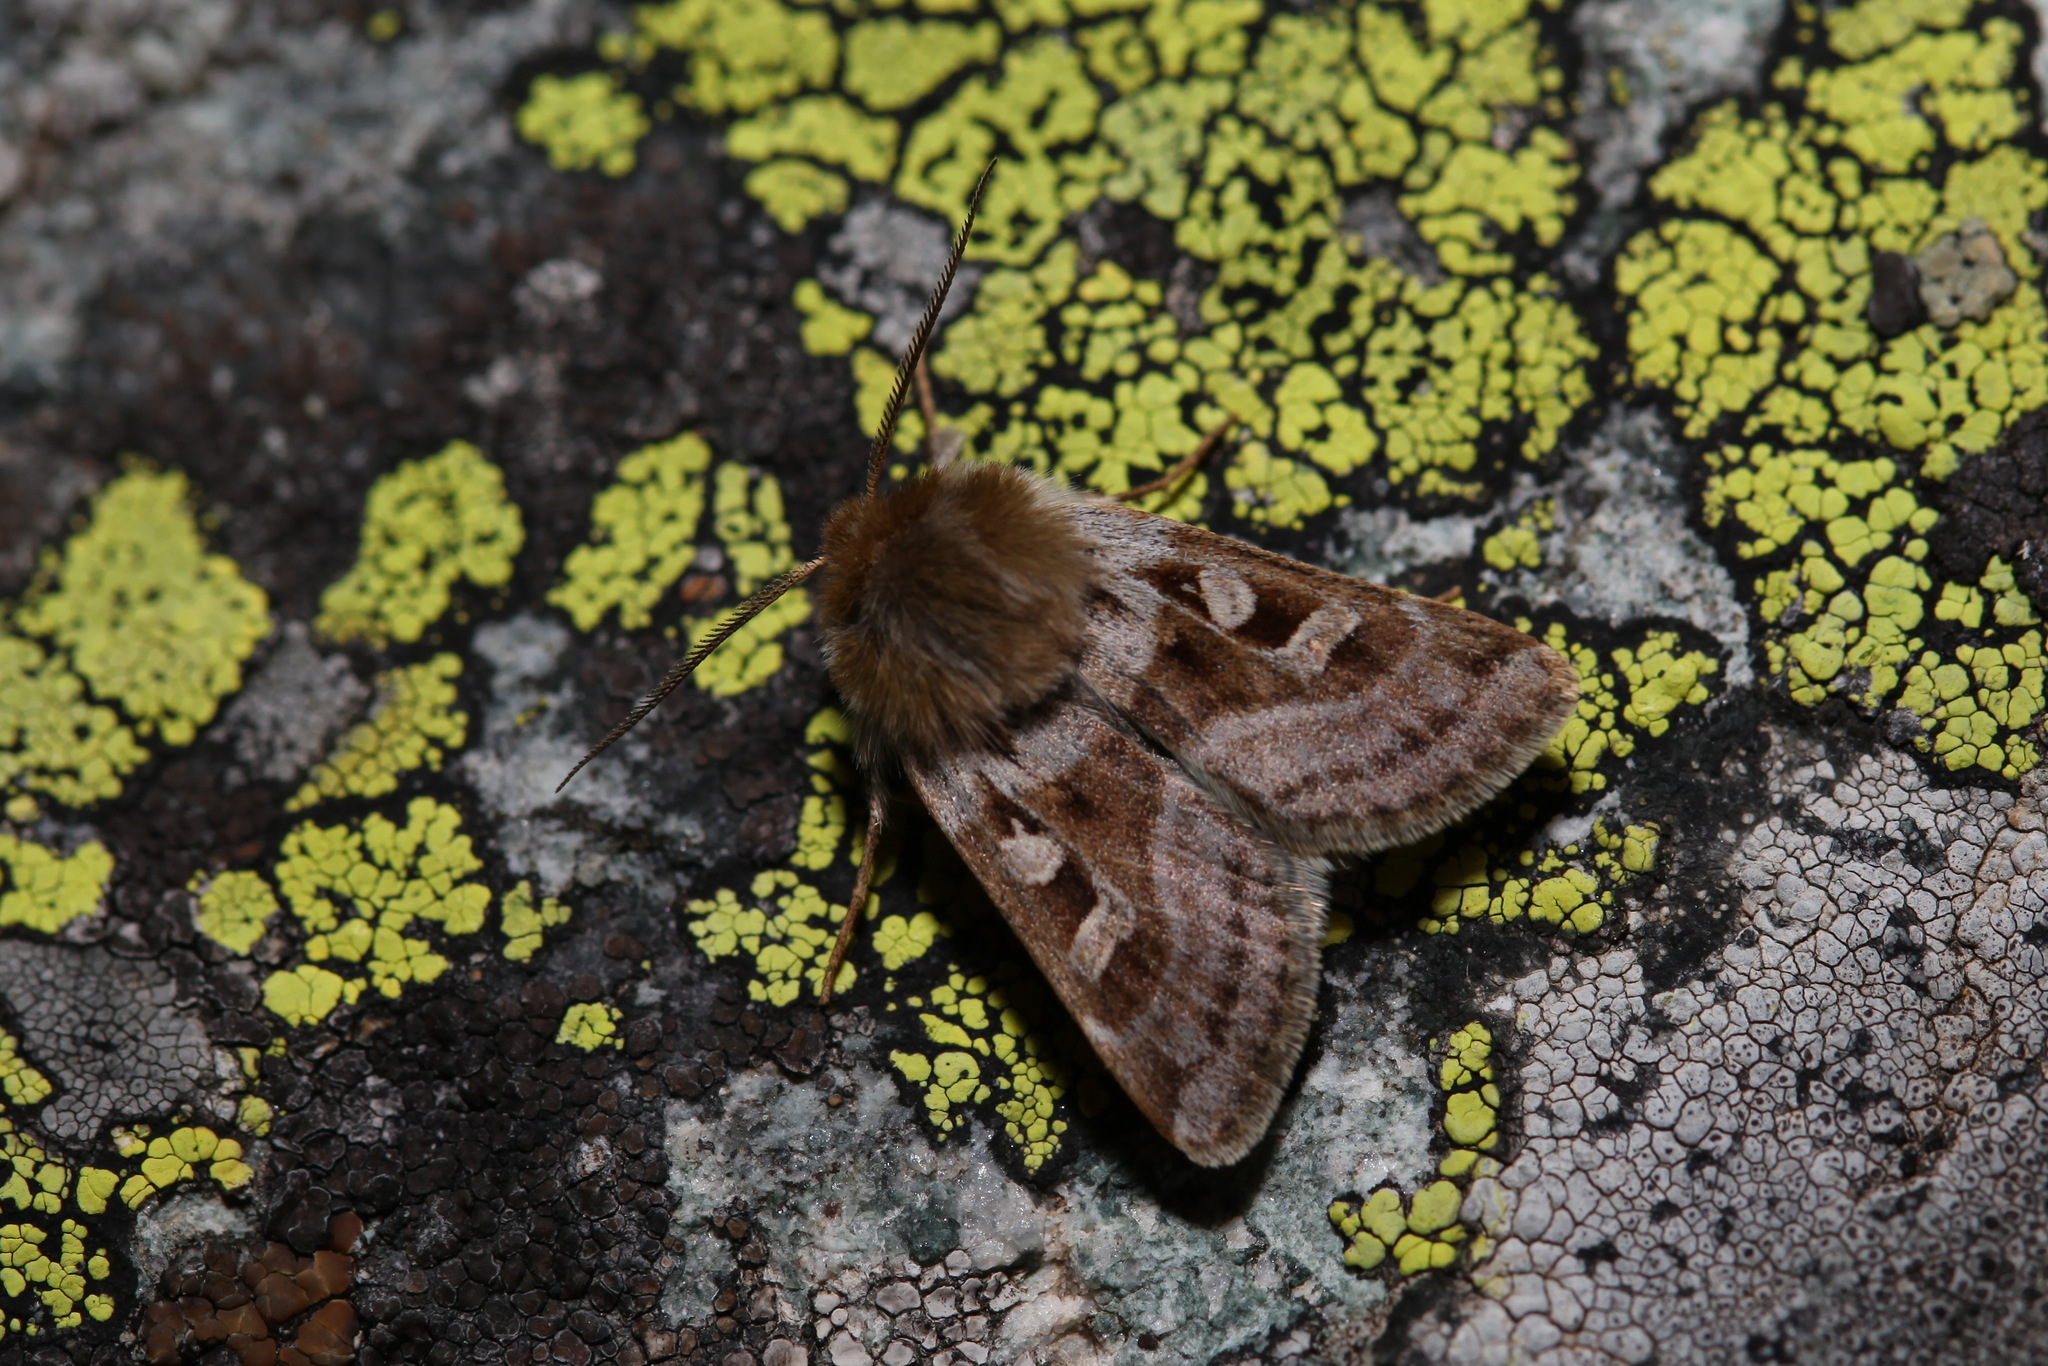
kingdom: Animalia
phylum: Arthropoda
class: Insecta
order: Lepidoptera
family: Noctuidae
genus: Estimata
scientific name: Estimata alexis
